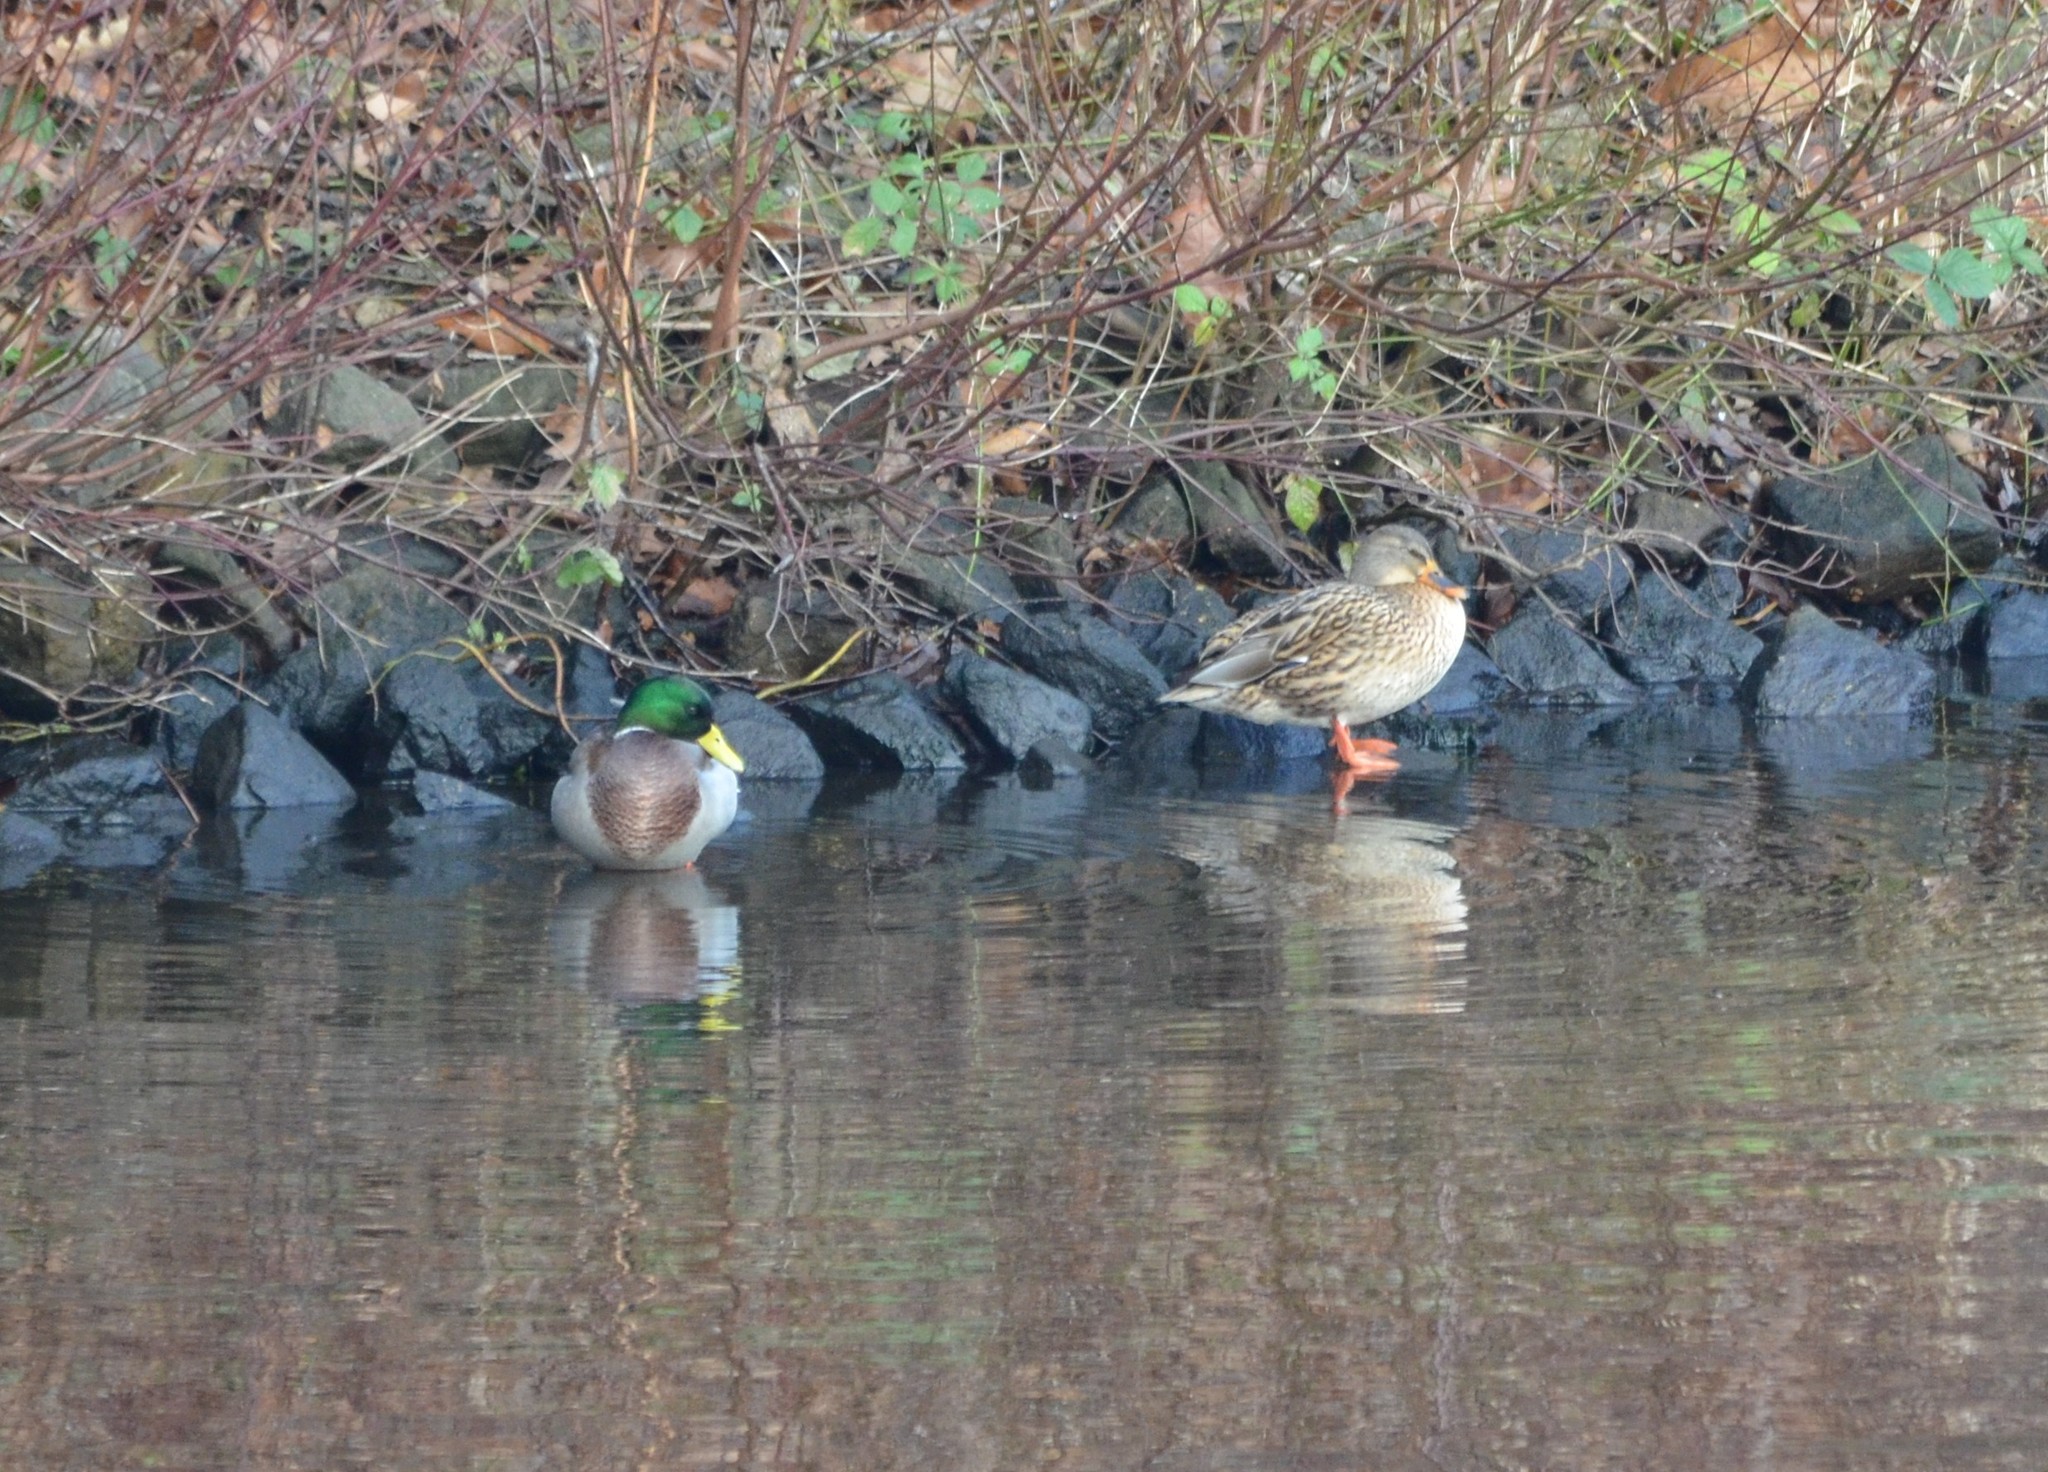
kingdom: Animalia
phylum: Chordata
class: Aves
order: Anseriformes
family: Anatidae
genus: Anas
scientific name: Anas platyrhynchos
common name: Mallard
